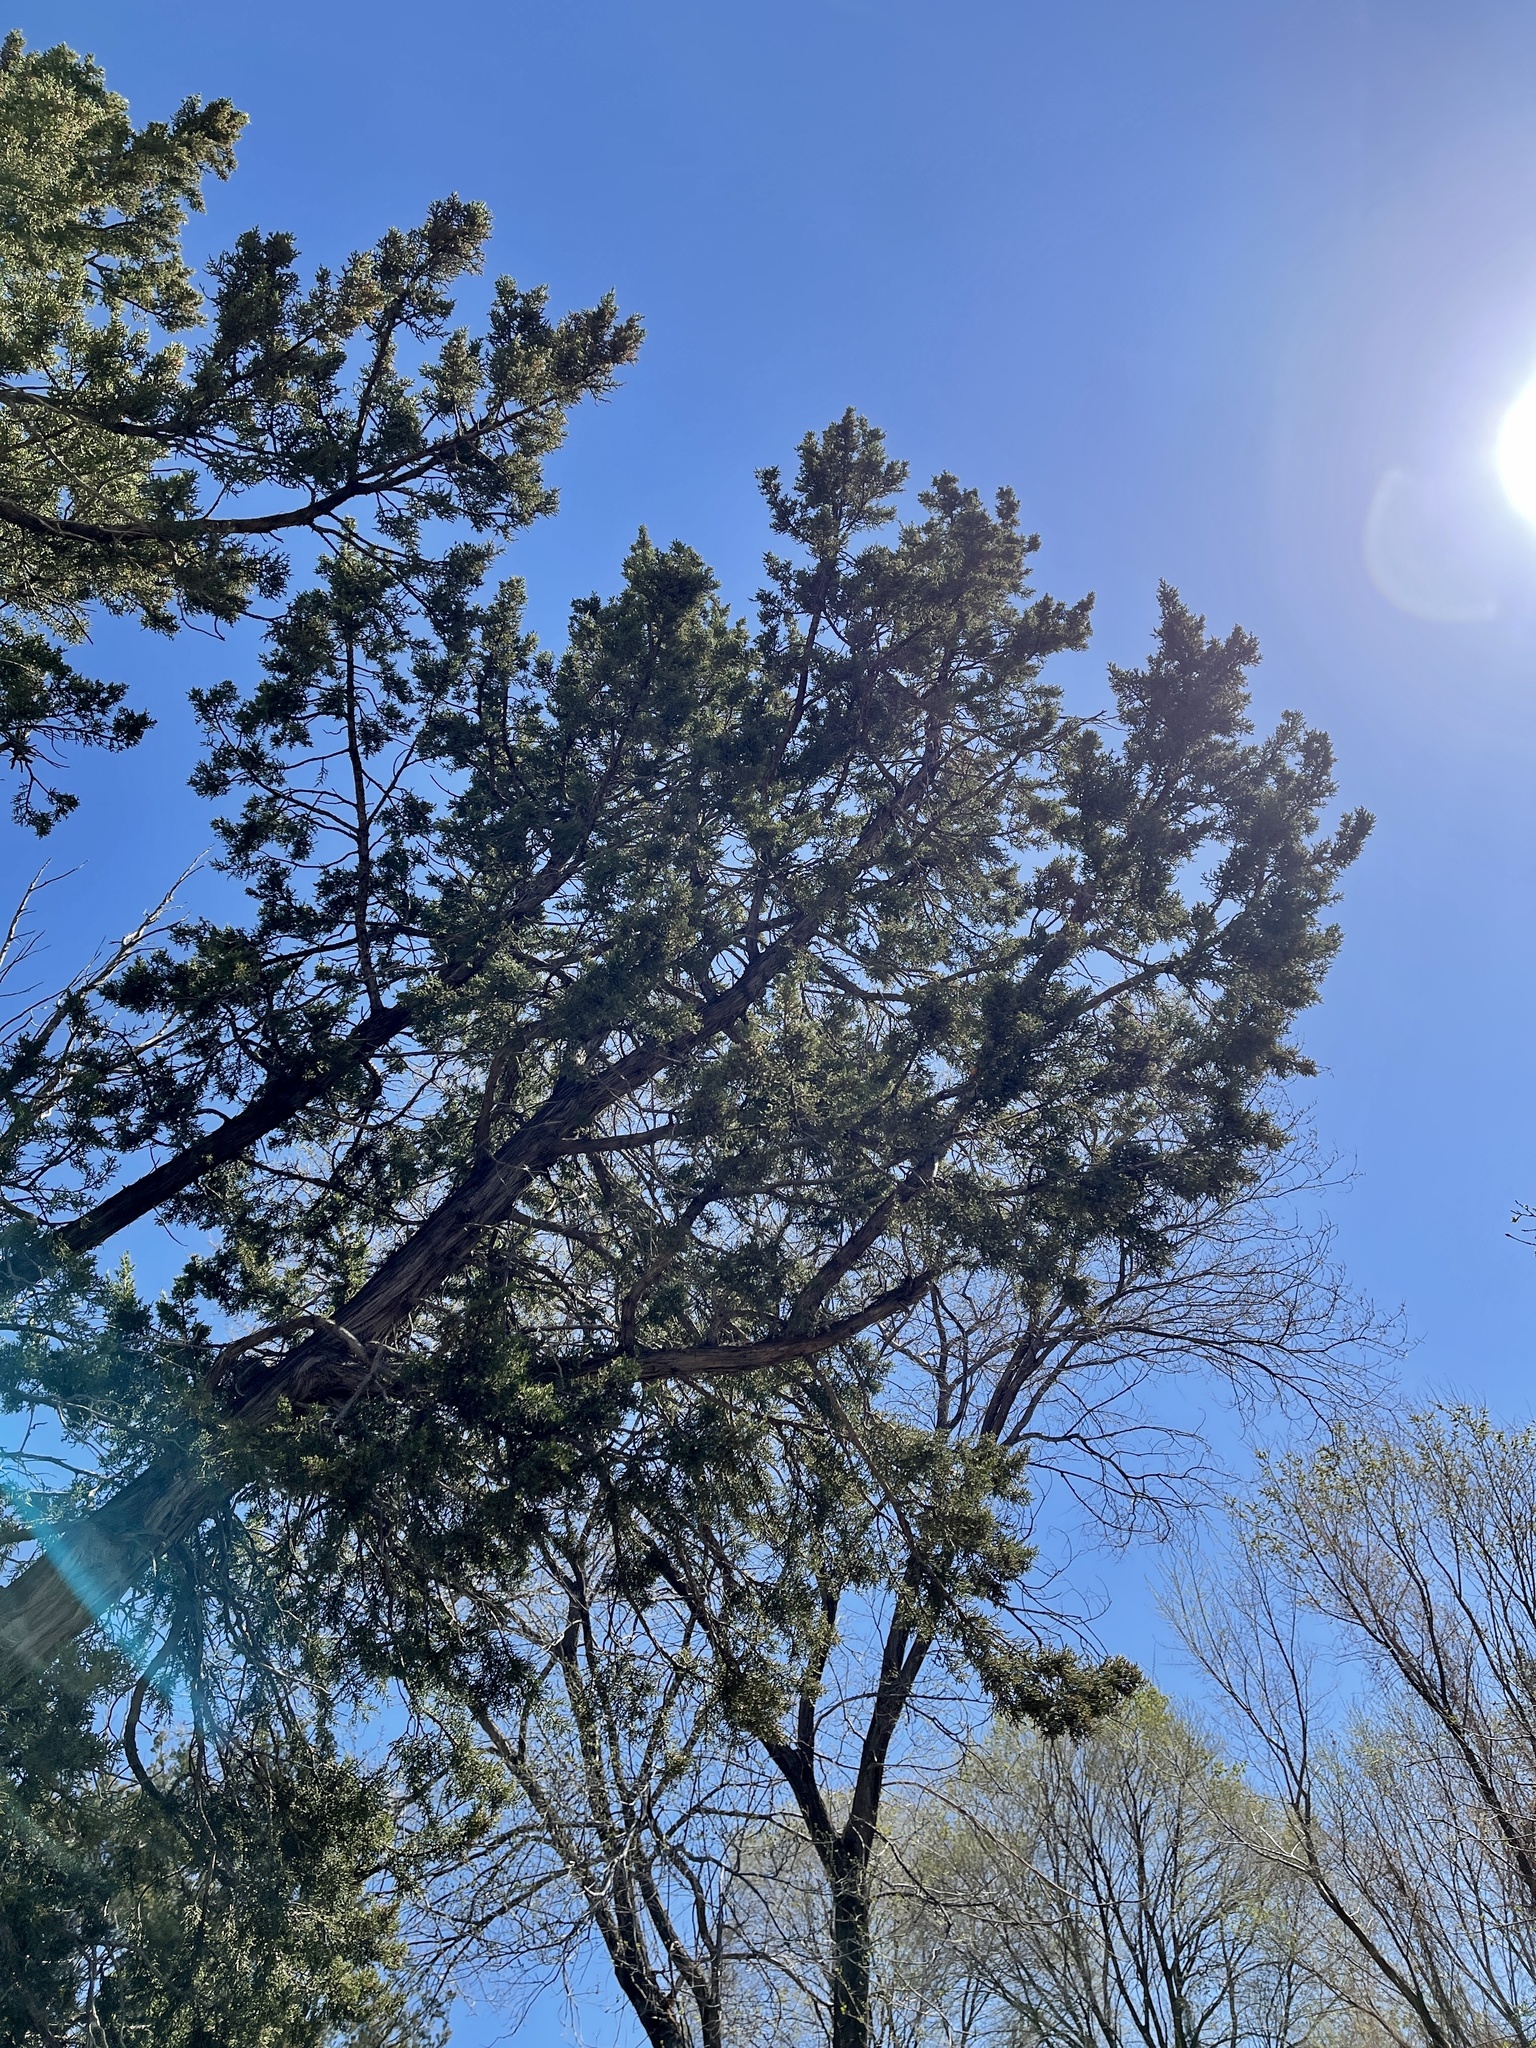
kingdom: Plantae
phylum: Tracheophyta
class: Pinopsida
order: Pinales
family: Cupressaceae
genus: Juniperus
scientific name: Juniperus monosperma
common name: One-seed juniper
